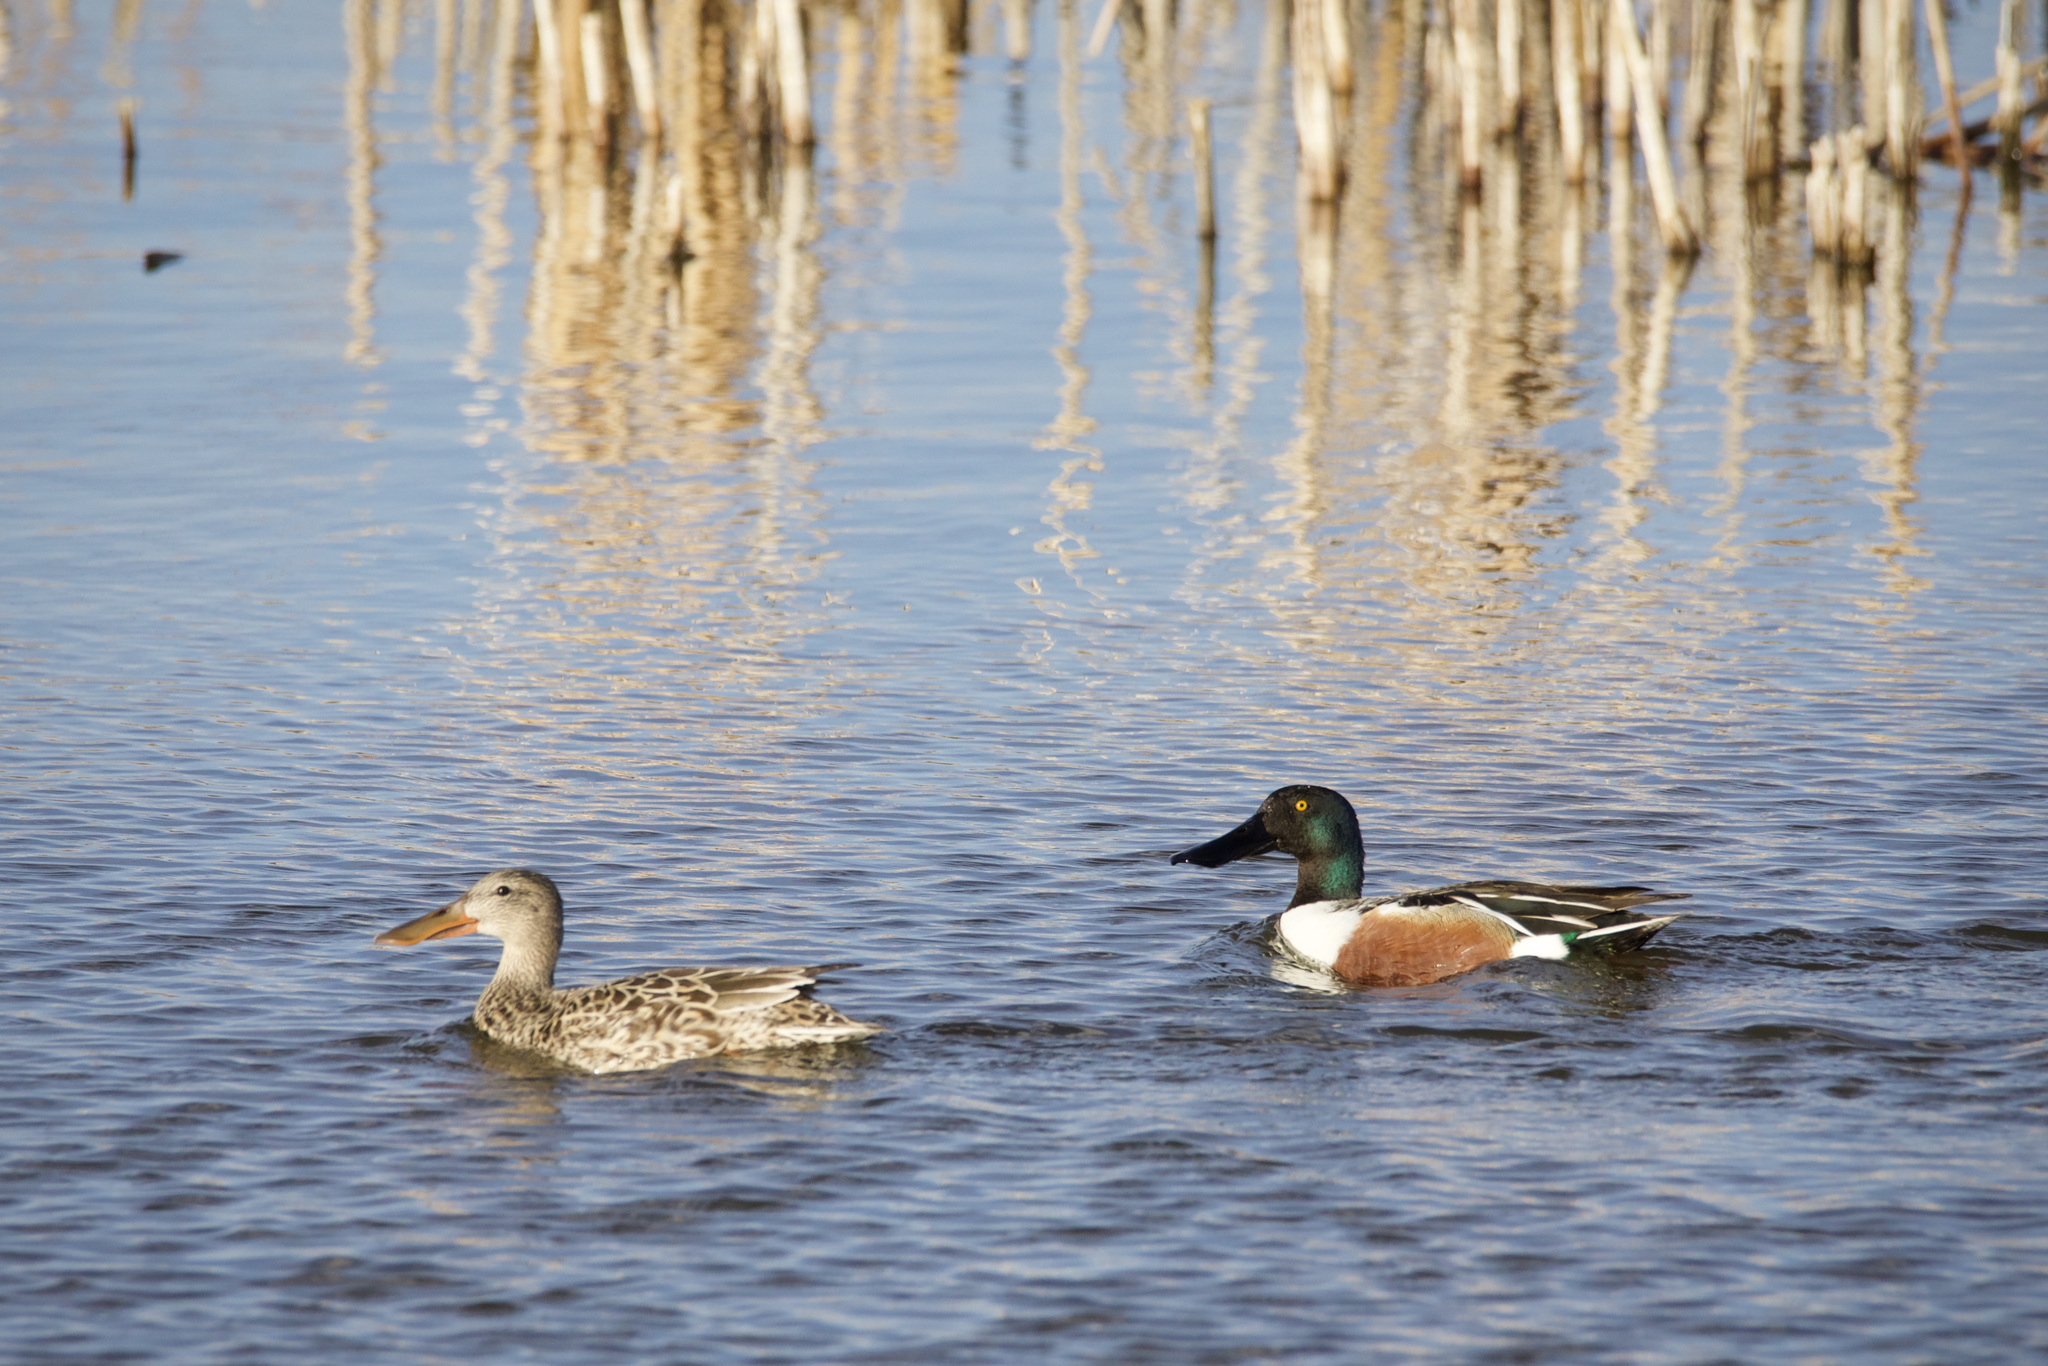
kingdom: Animalia
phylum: Chordata
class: Aves
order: Anseriformes
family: Anatidae
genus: Spatula
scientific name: Spatula clypeata
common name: Northern shoveler
